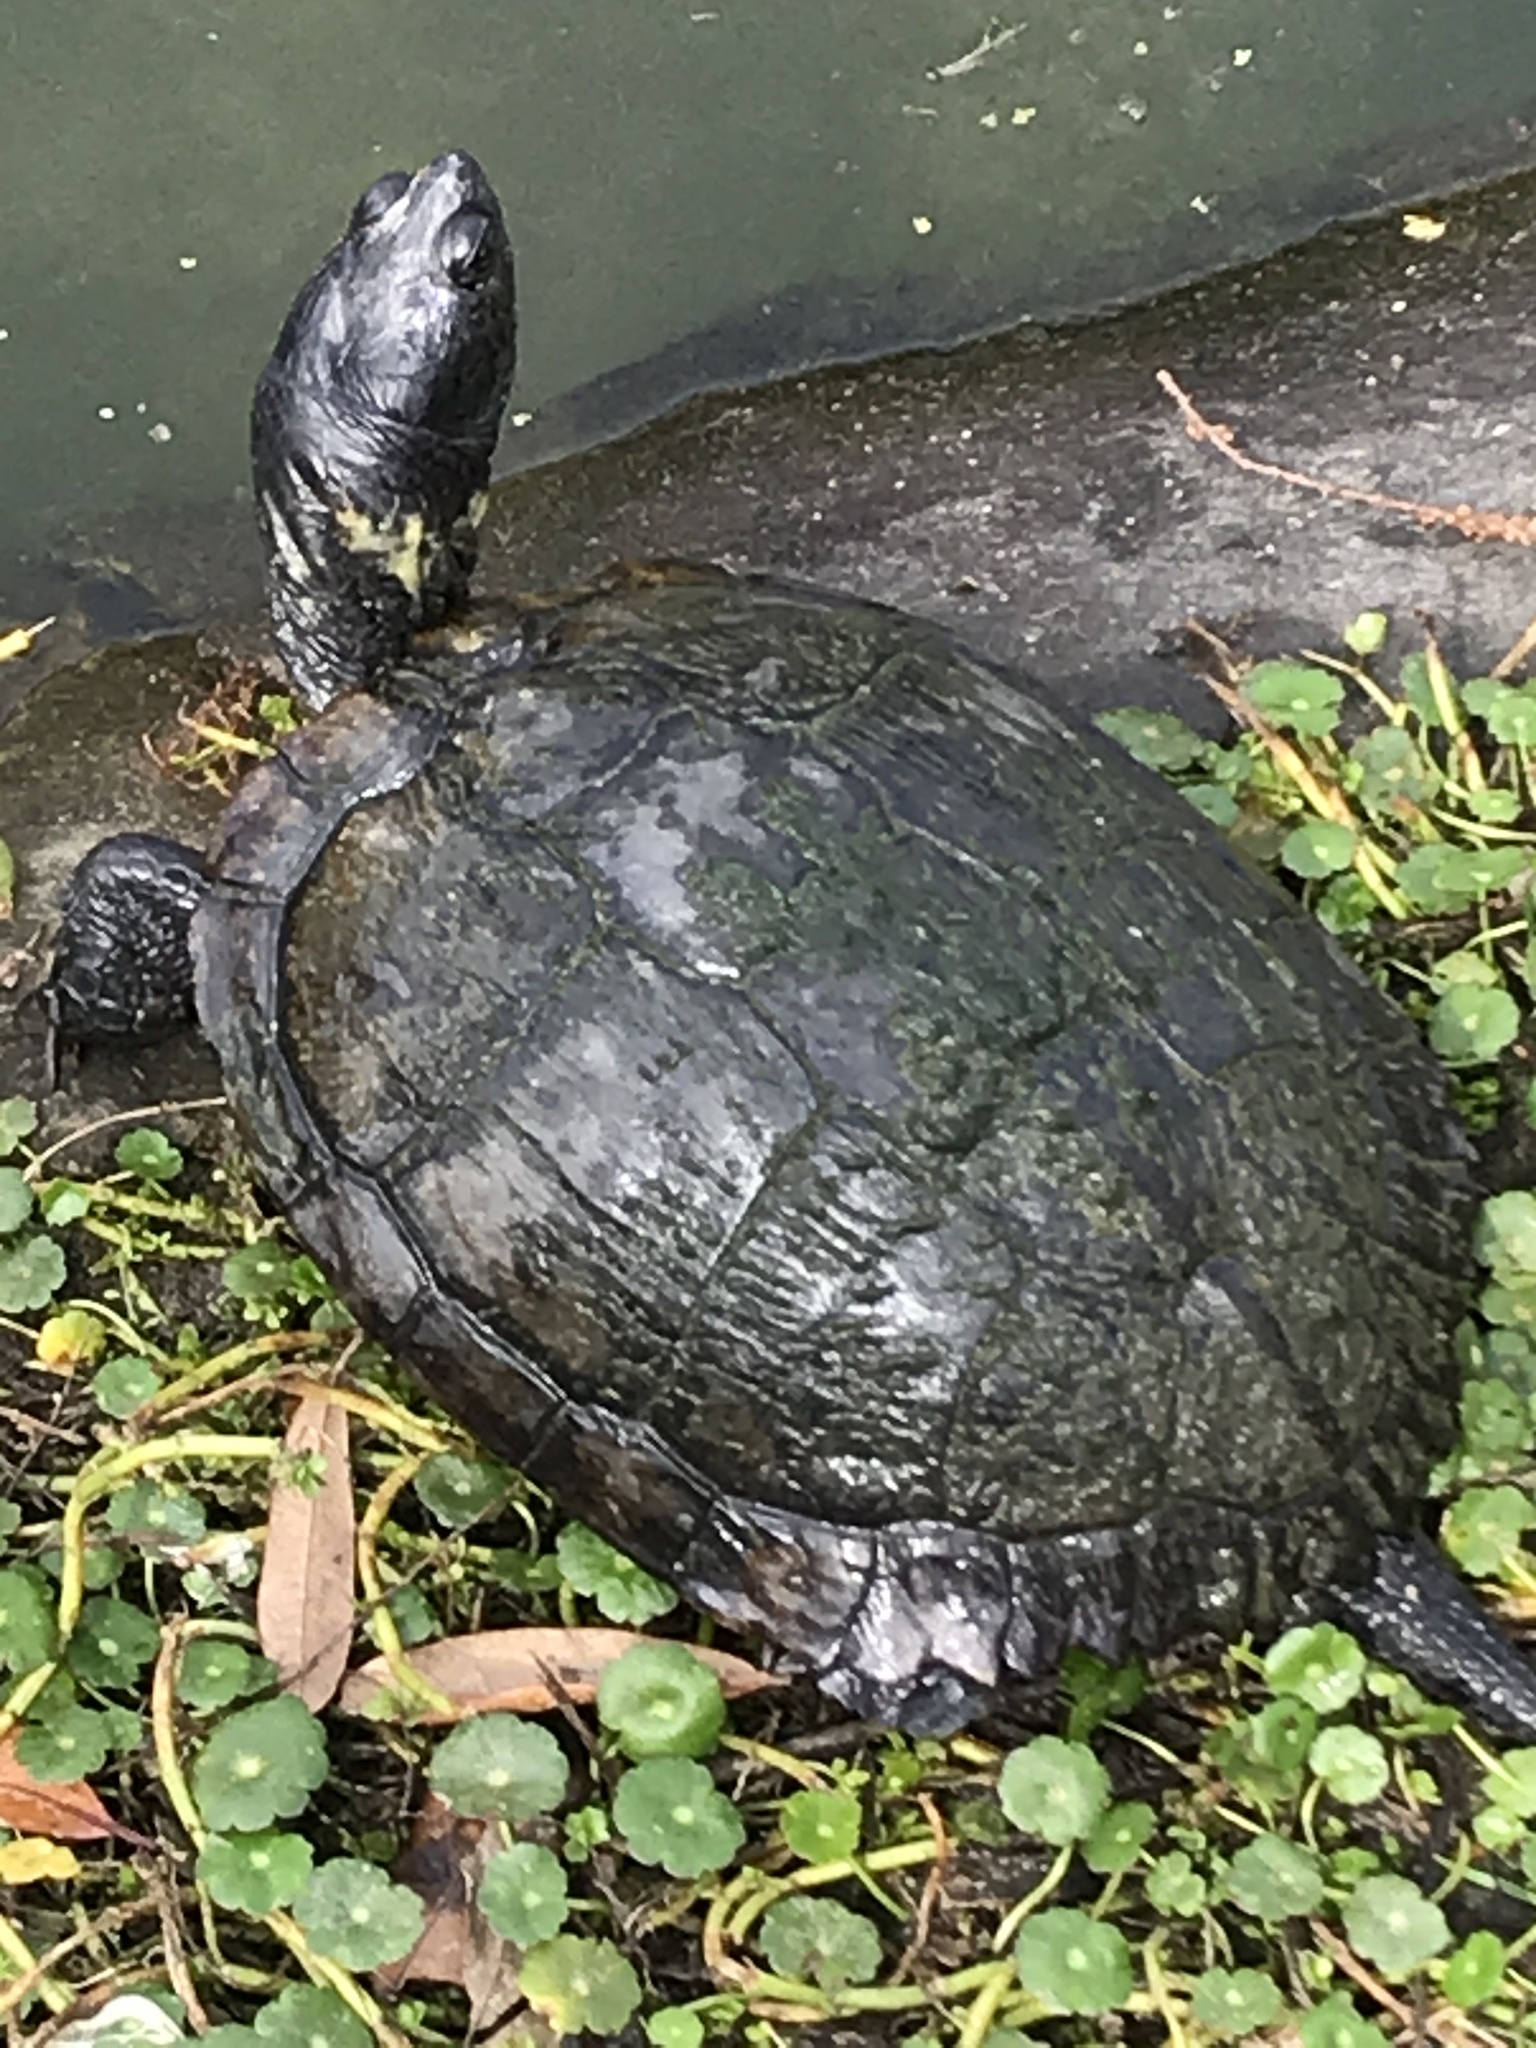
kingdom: Animalia
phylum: Chordata
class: Testudines
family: Emydidae
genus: Trachemys
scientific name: Trachemys scripta
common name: Slider
